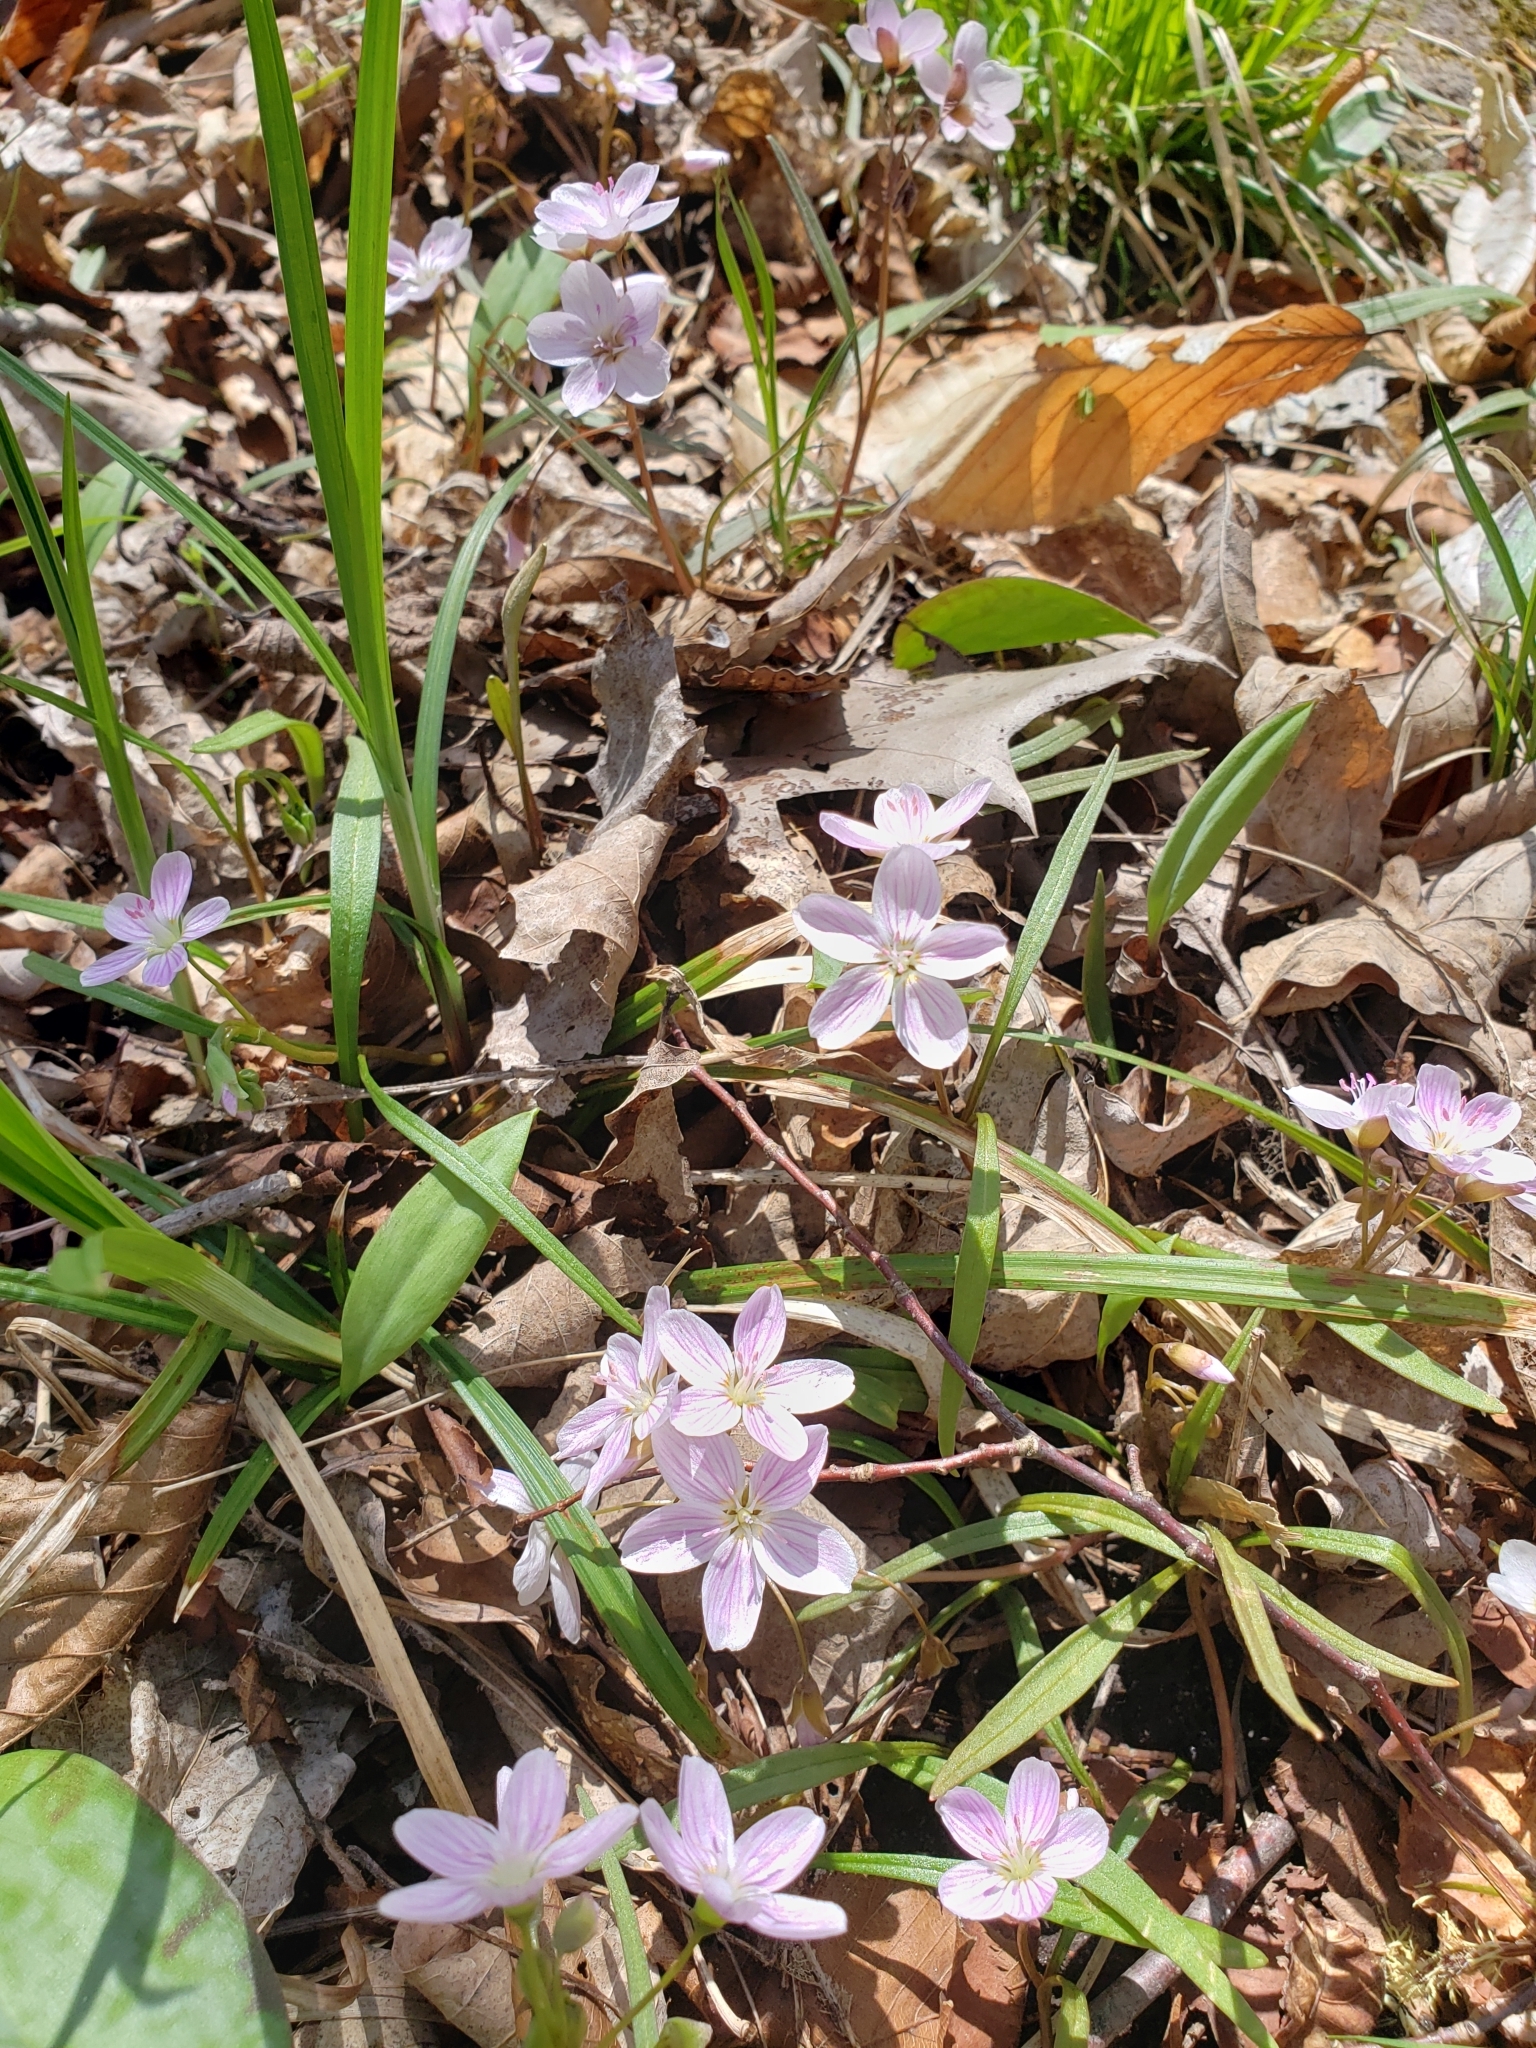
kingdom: Plantae
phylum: Tracheophyta
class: Magnoliopsida
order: Caryophyllales
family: Montiaceae
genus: Claytonia
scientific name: Claytonia virginica
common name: Virginia springbeauty
